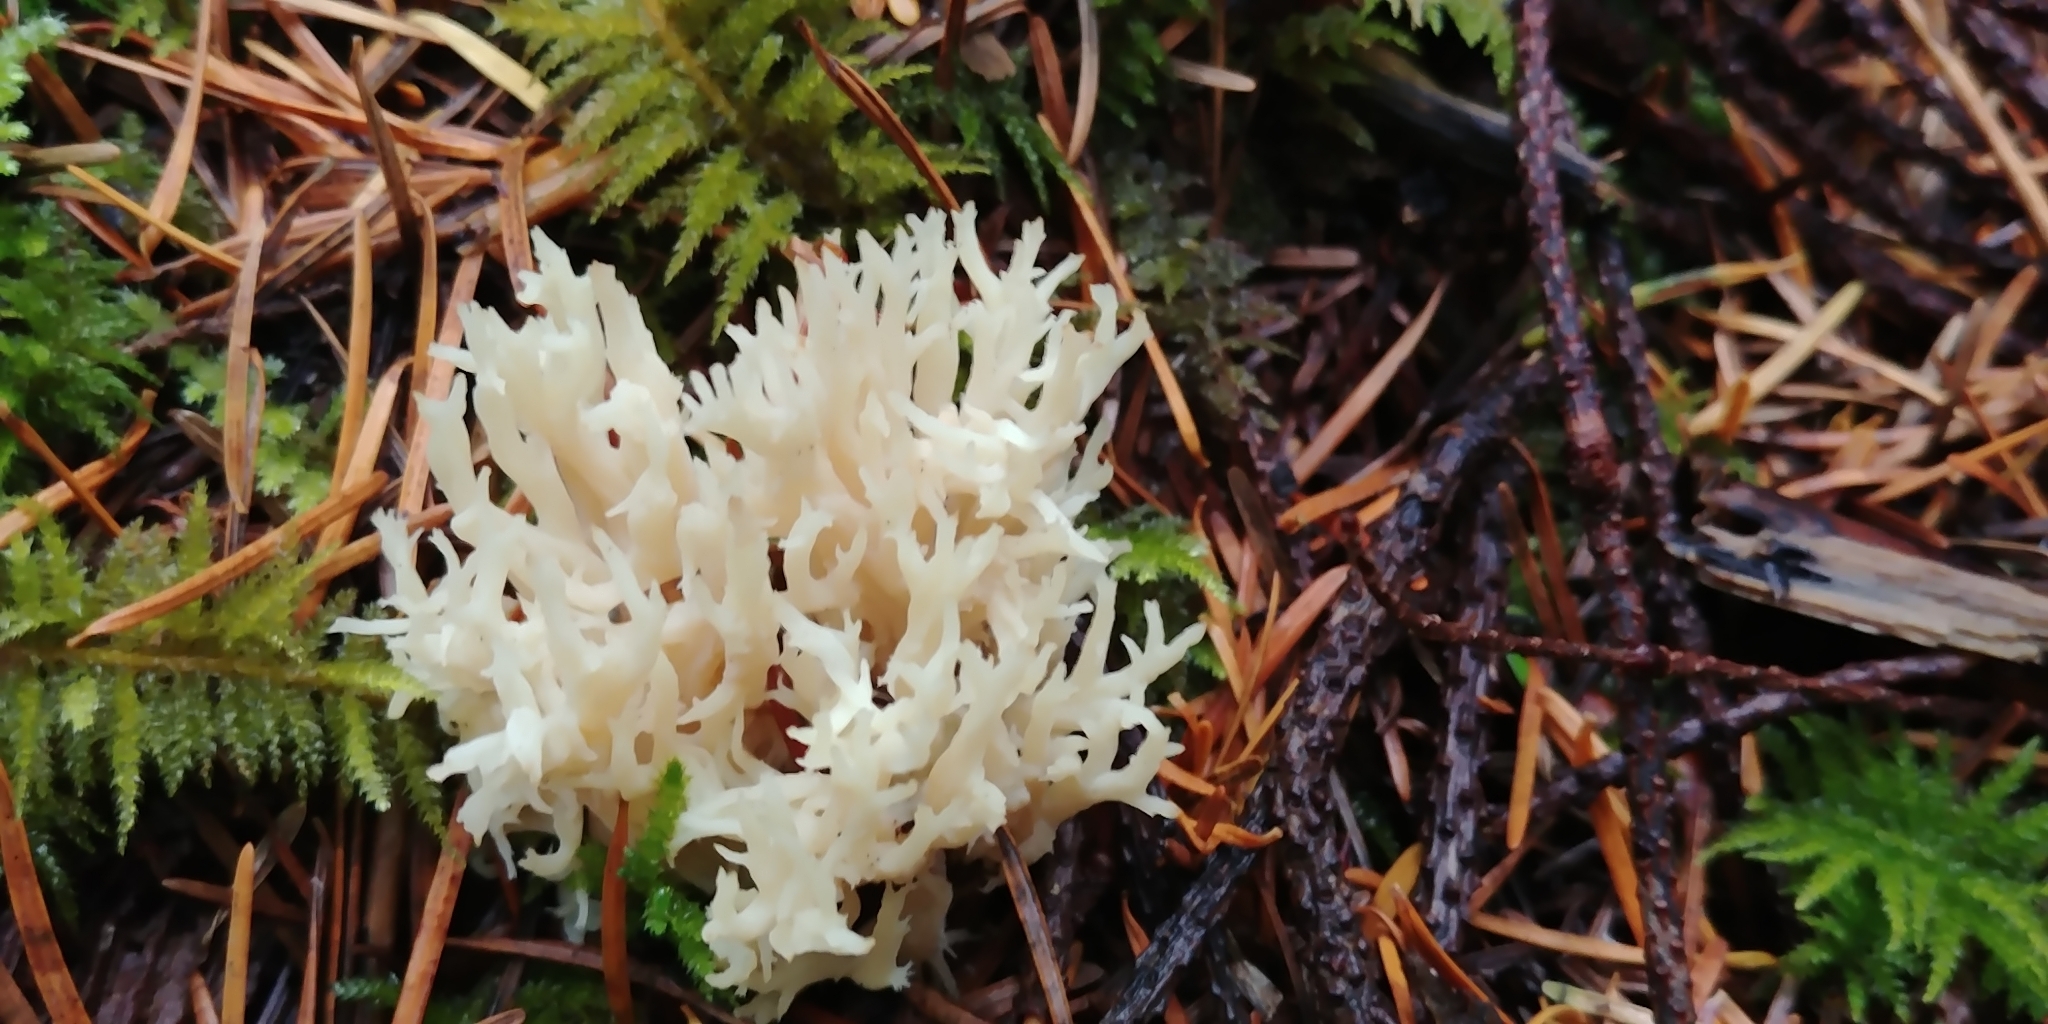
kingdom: Fungi
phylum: Basidiomycota
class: Agaricomycetes
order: Cantharellales
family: Hydnaceae
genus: Clavulina
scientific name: Clavulina coralloides
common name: Crested coral
